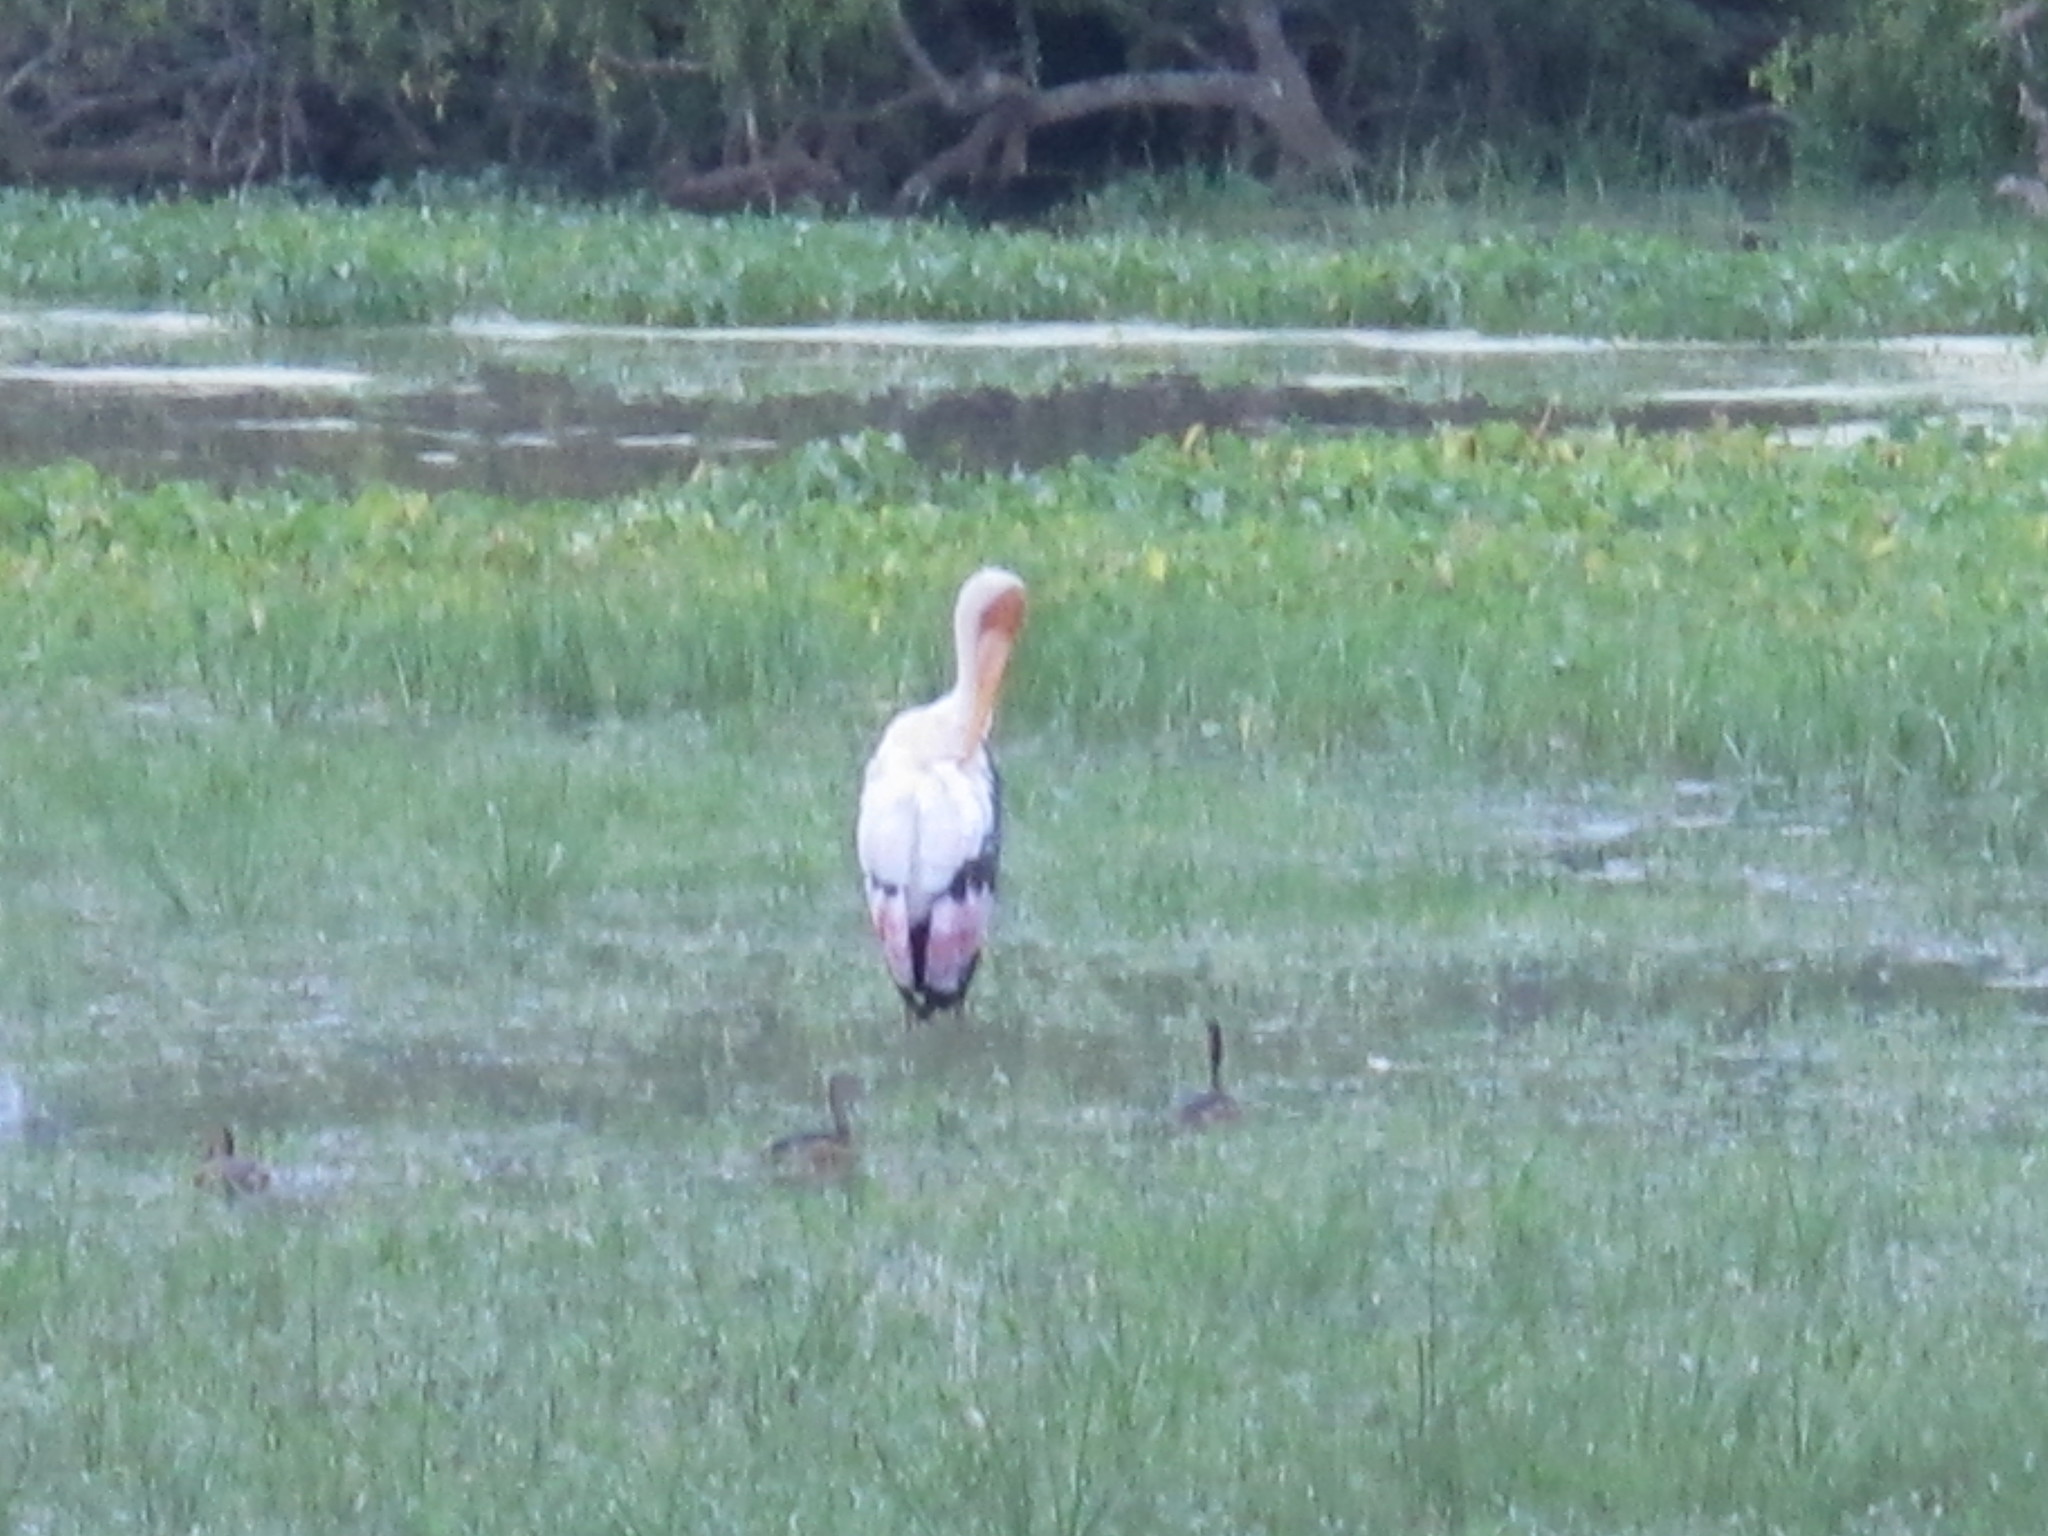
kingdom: Animalia
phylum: Chordata
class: Aves
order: Ciconiiformes
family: Ciconiidae
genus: Mycteria
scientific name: Mycteria leucocephala
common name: Painted stork
